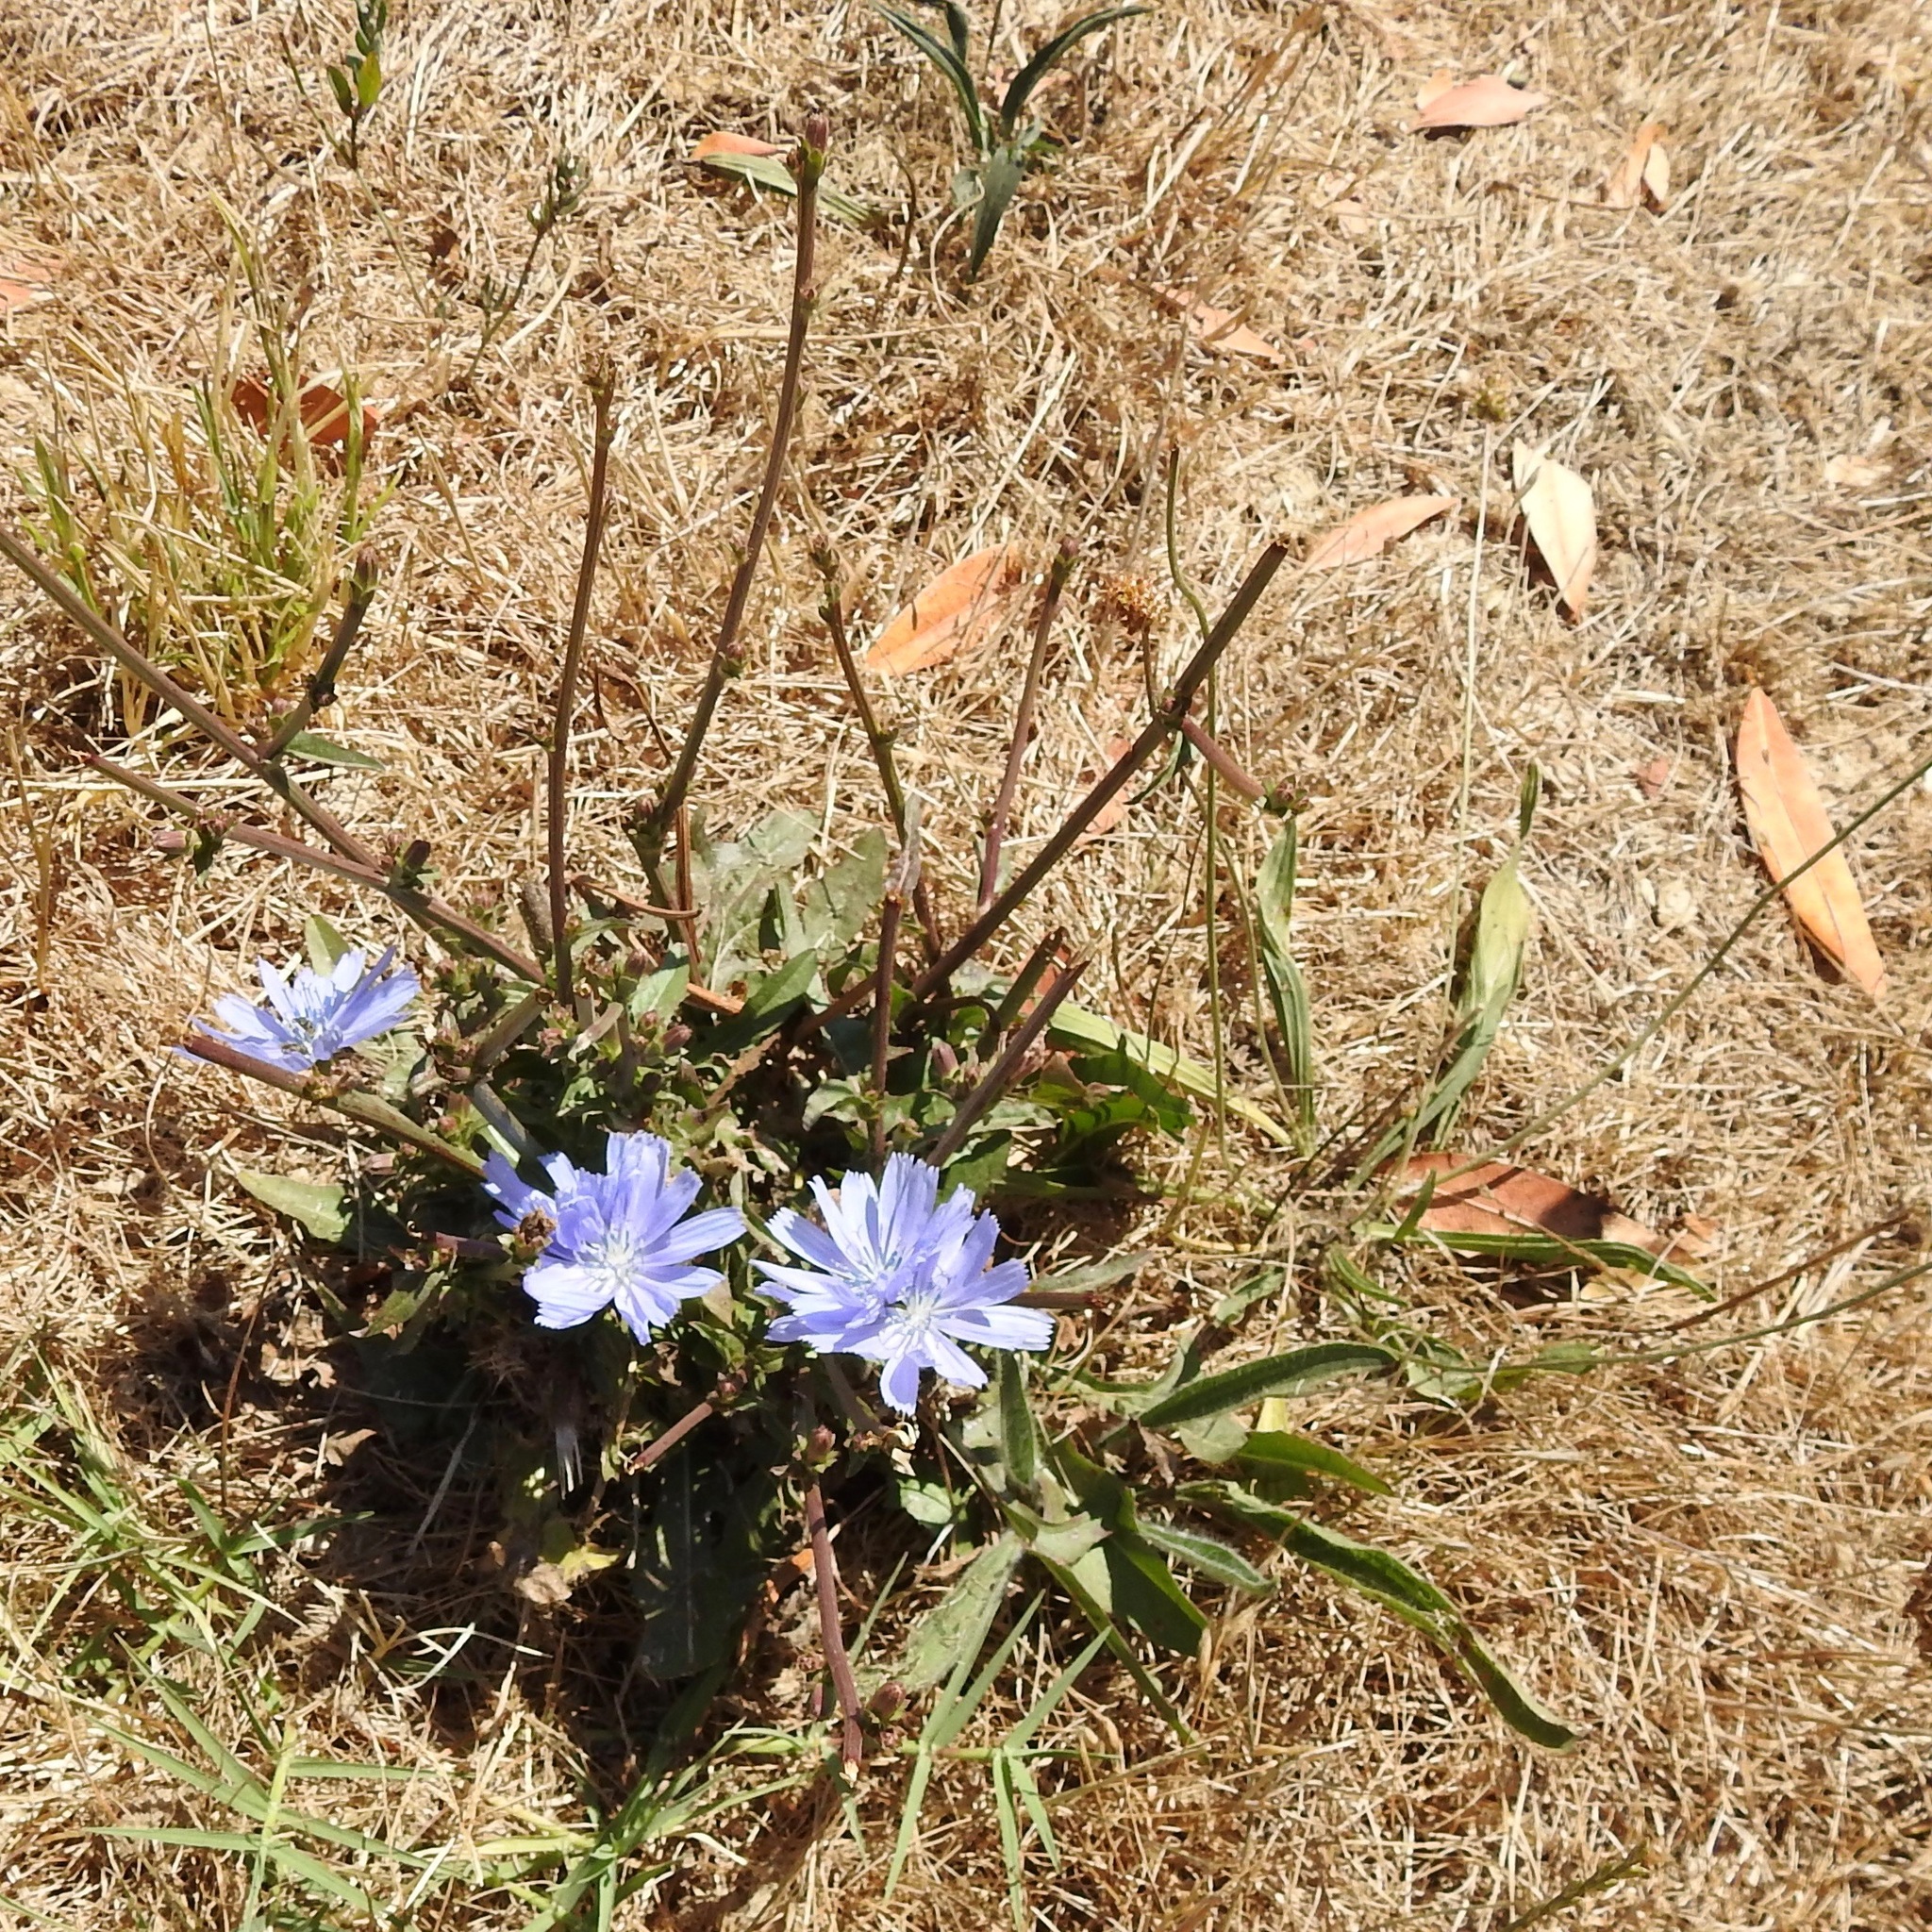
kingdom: Plantae
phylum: Tracheophyta
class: Magnoliopsida
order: Asterales
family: Asteraceae
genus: Cichorium
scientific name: Cichorium intybus
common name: Chicory
